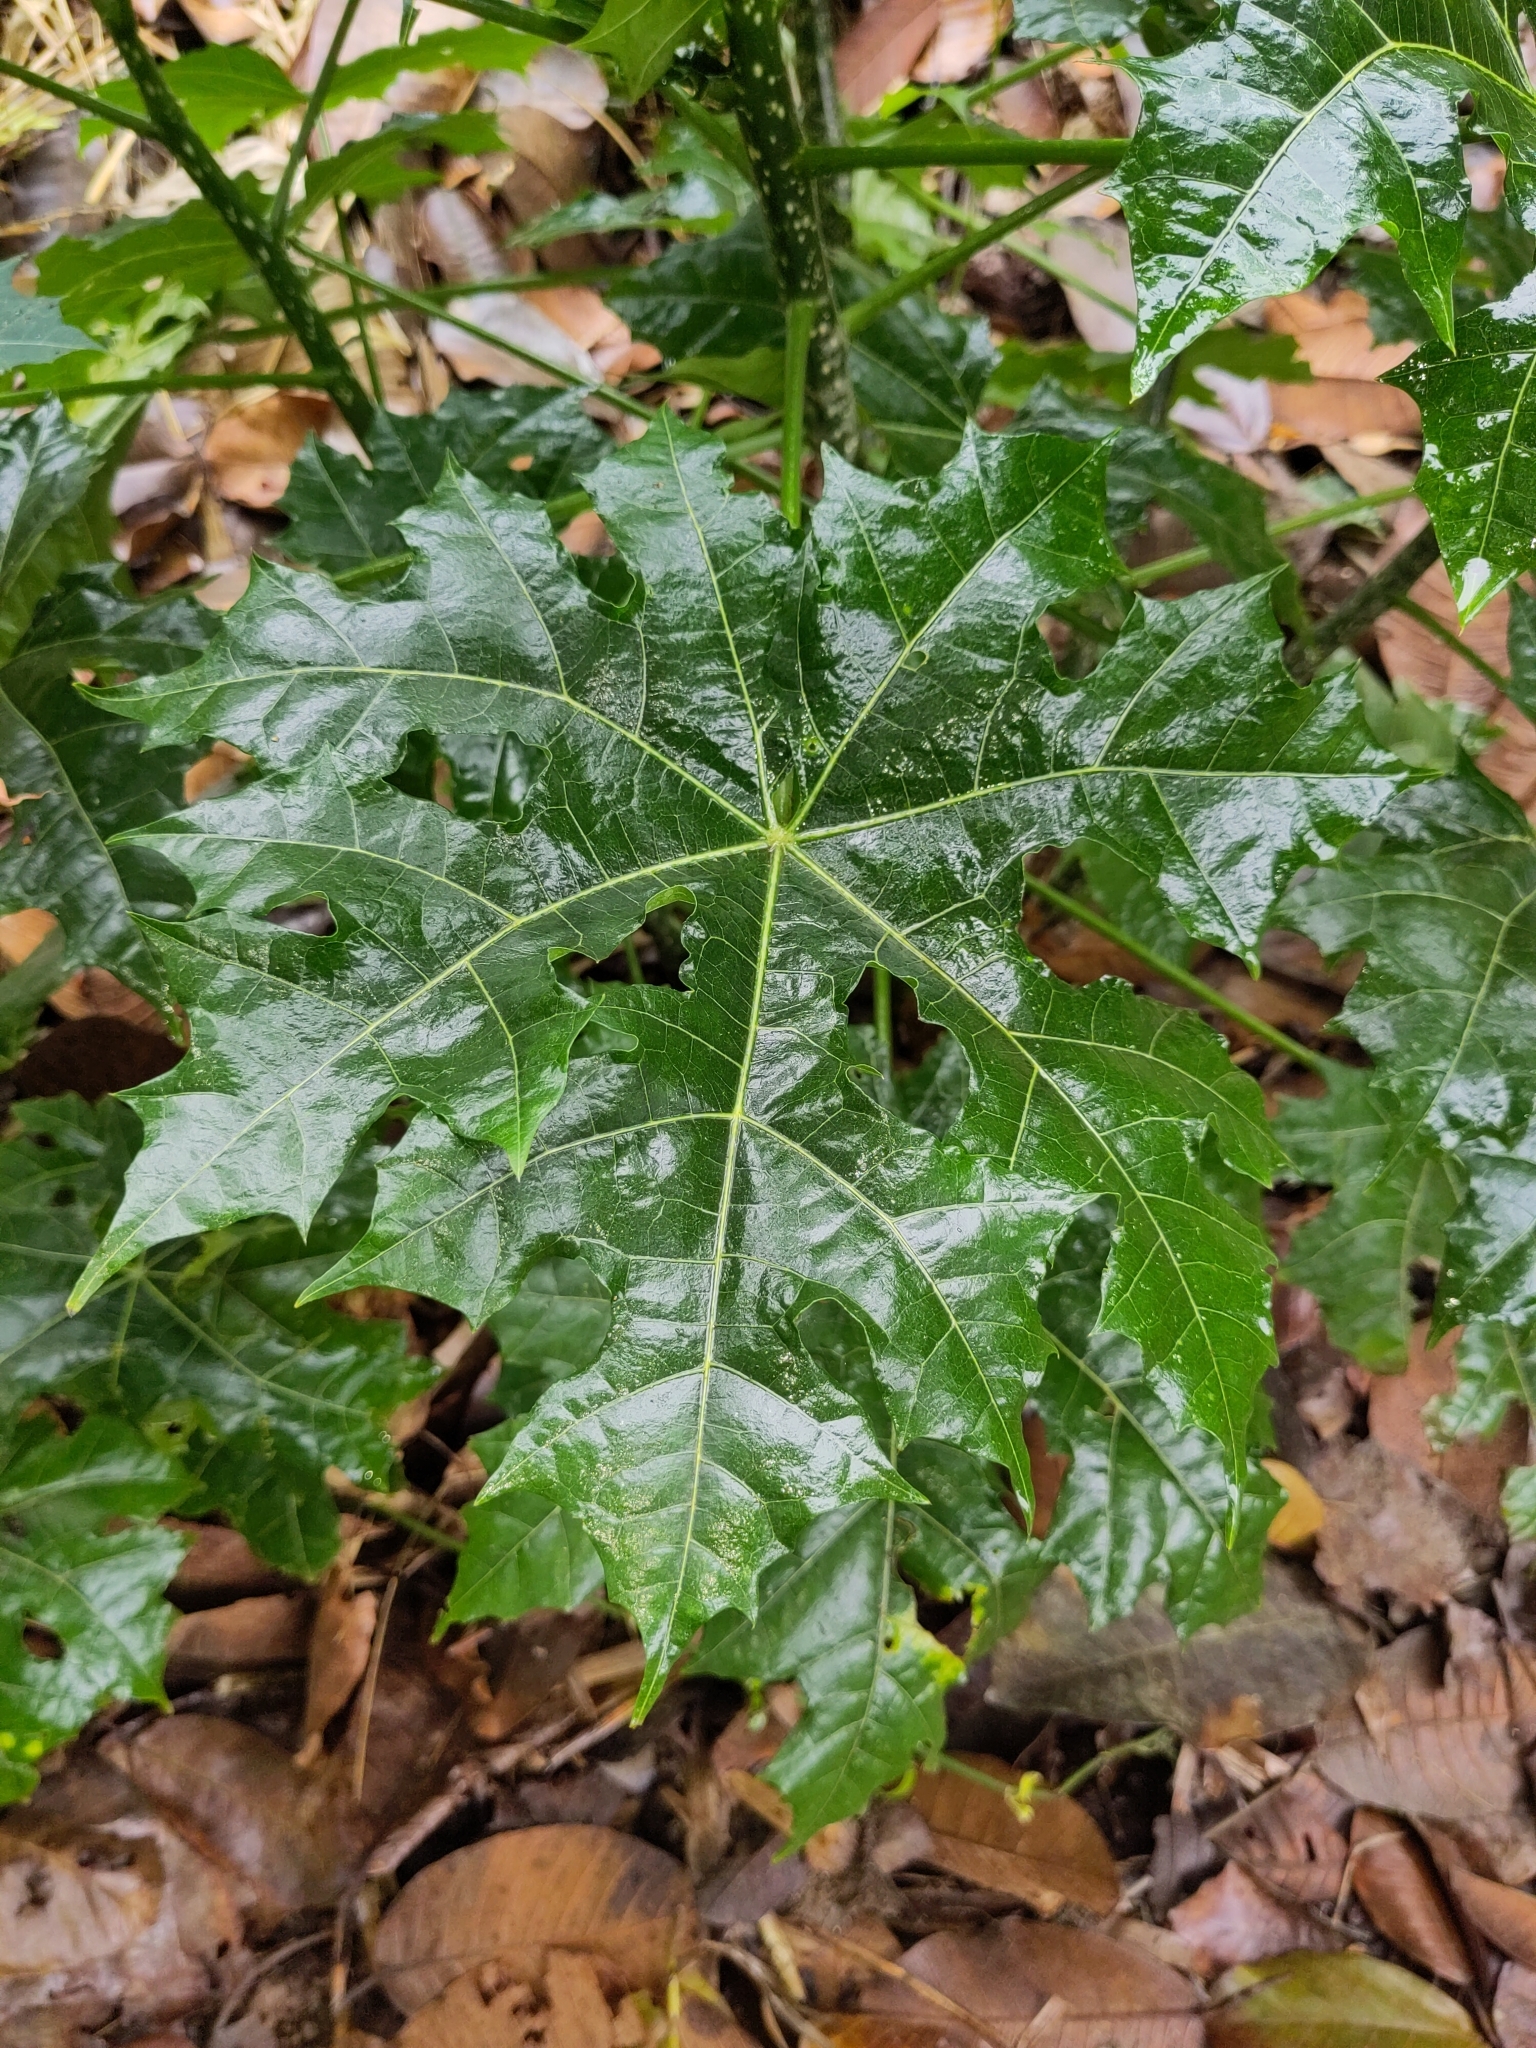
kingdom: Plantae
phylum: Tracheophyta
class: Magnoliopsida
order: Malpighiales
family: Euphorbiaceae
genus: Cnidoscolus
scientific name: Cnidoscolus aconitifolius
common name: Cabbage-star
